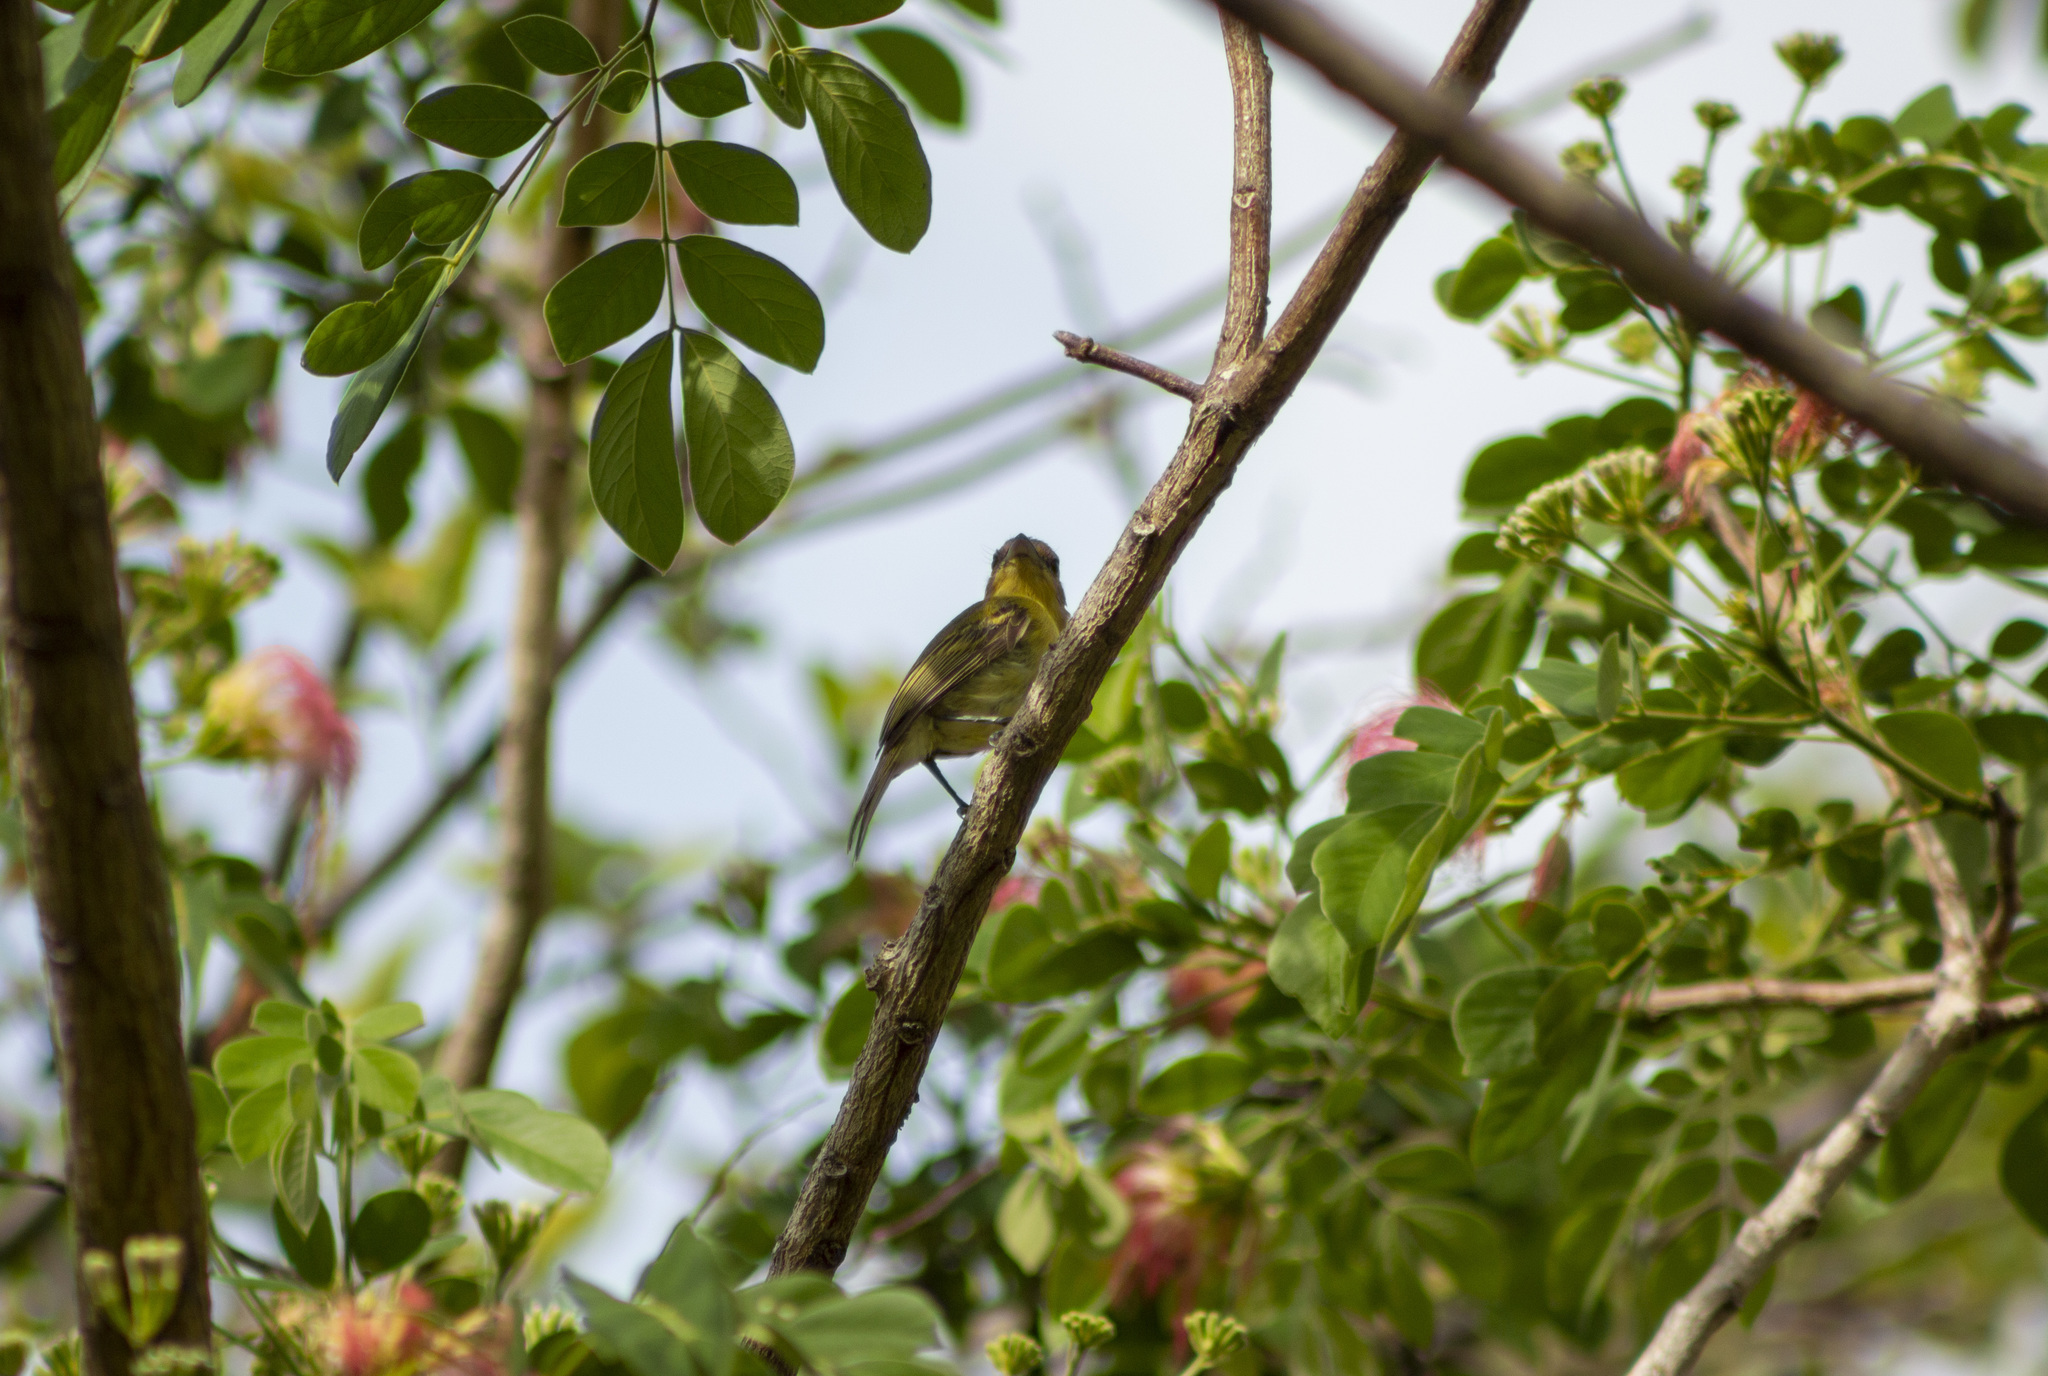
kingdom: Animalia
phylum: Chordata
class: Aves
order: Passeriformes
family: Tyrannidae
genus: Tolmomyias
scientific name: Tolmomyias flaviventris
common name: Ochre-lored flatbill
